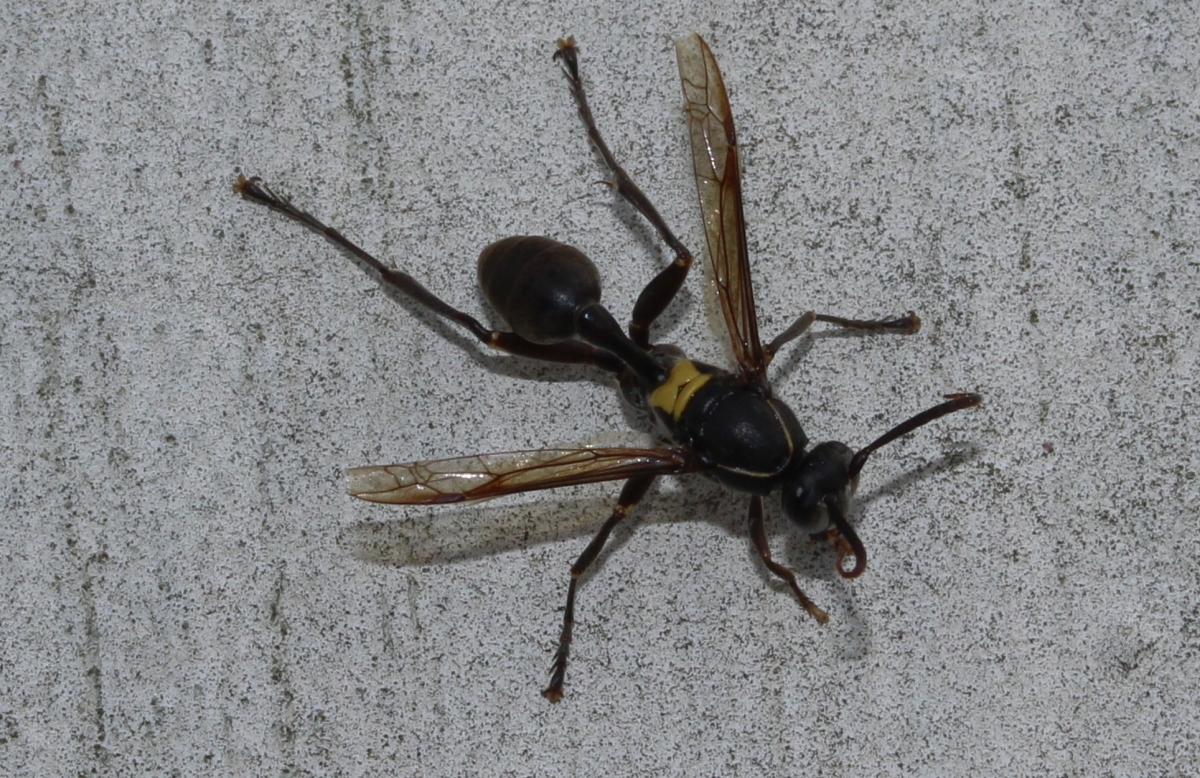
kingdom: Animalia
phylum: Arthropoda
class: Insecta
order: Hymenoptera
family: Vespidae
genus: Mischocyttarus
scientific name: Mischocyttarus
